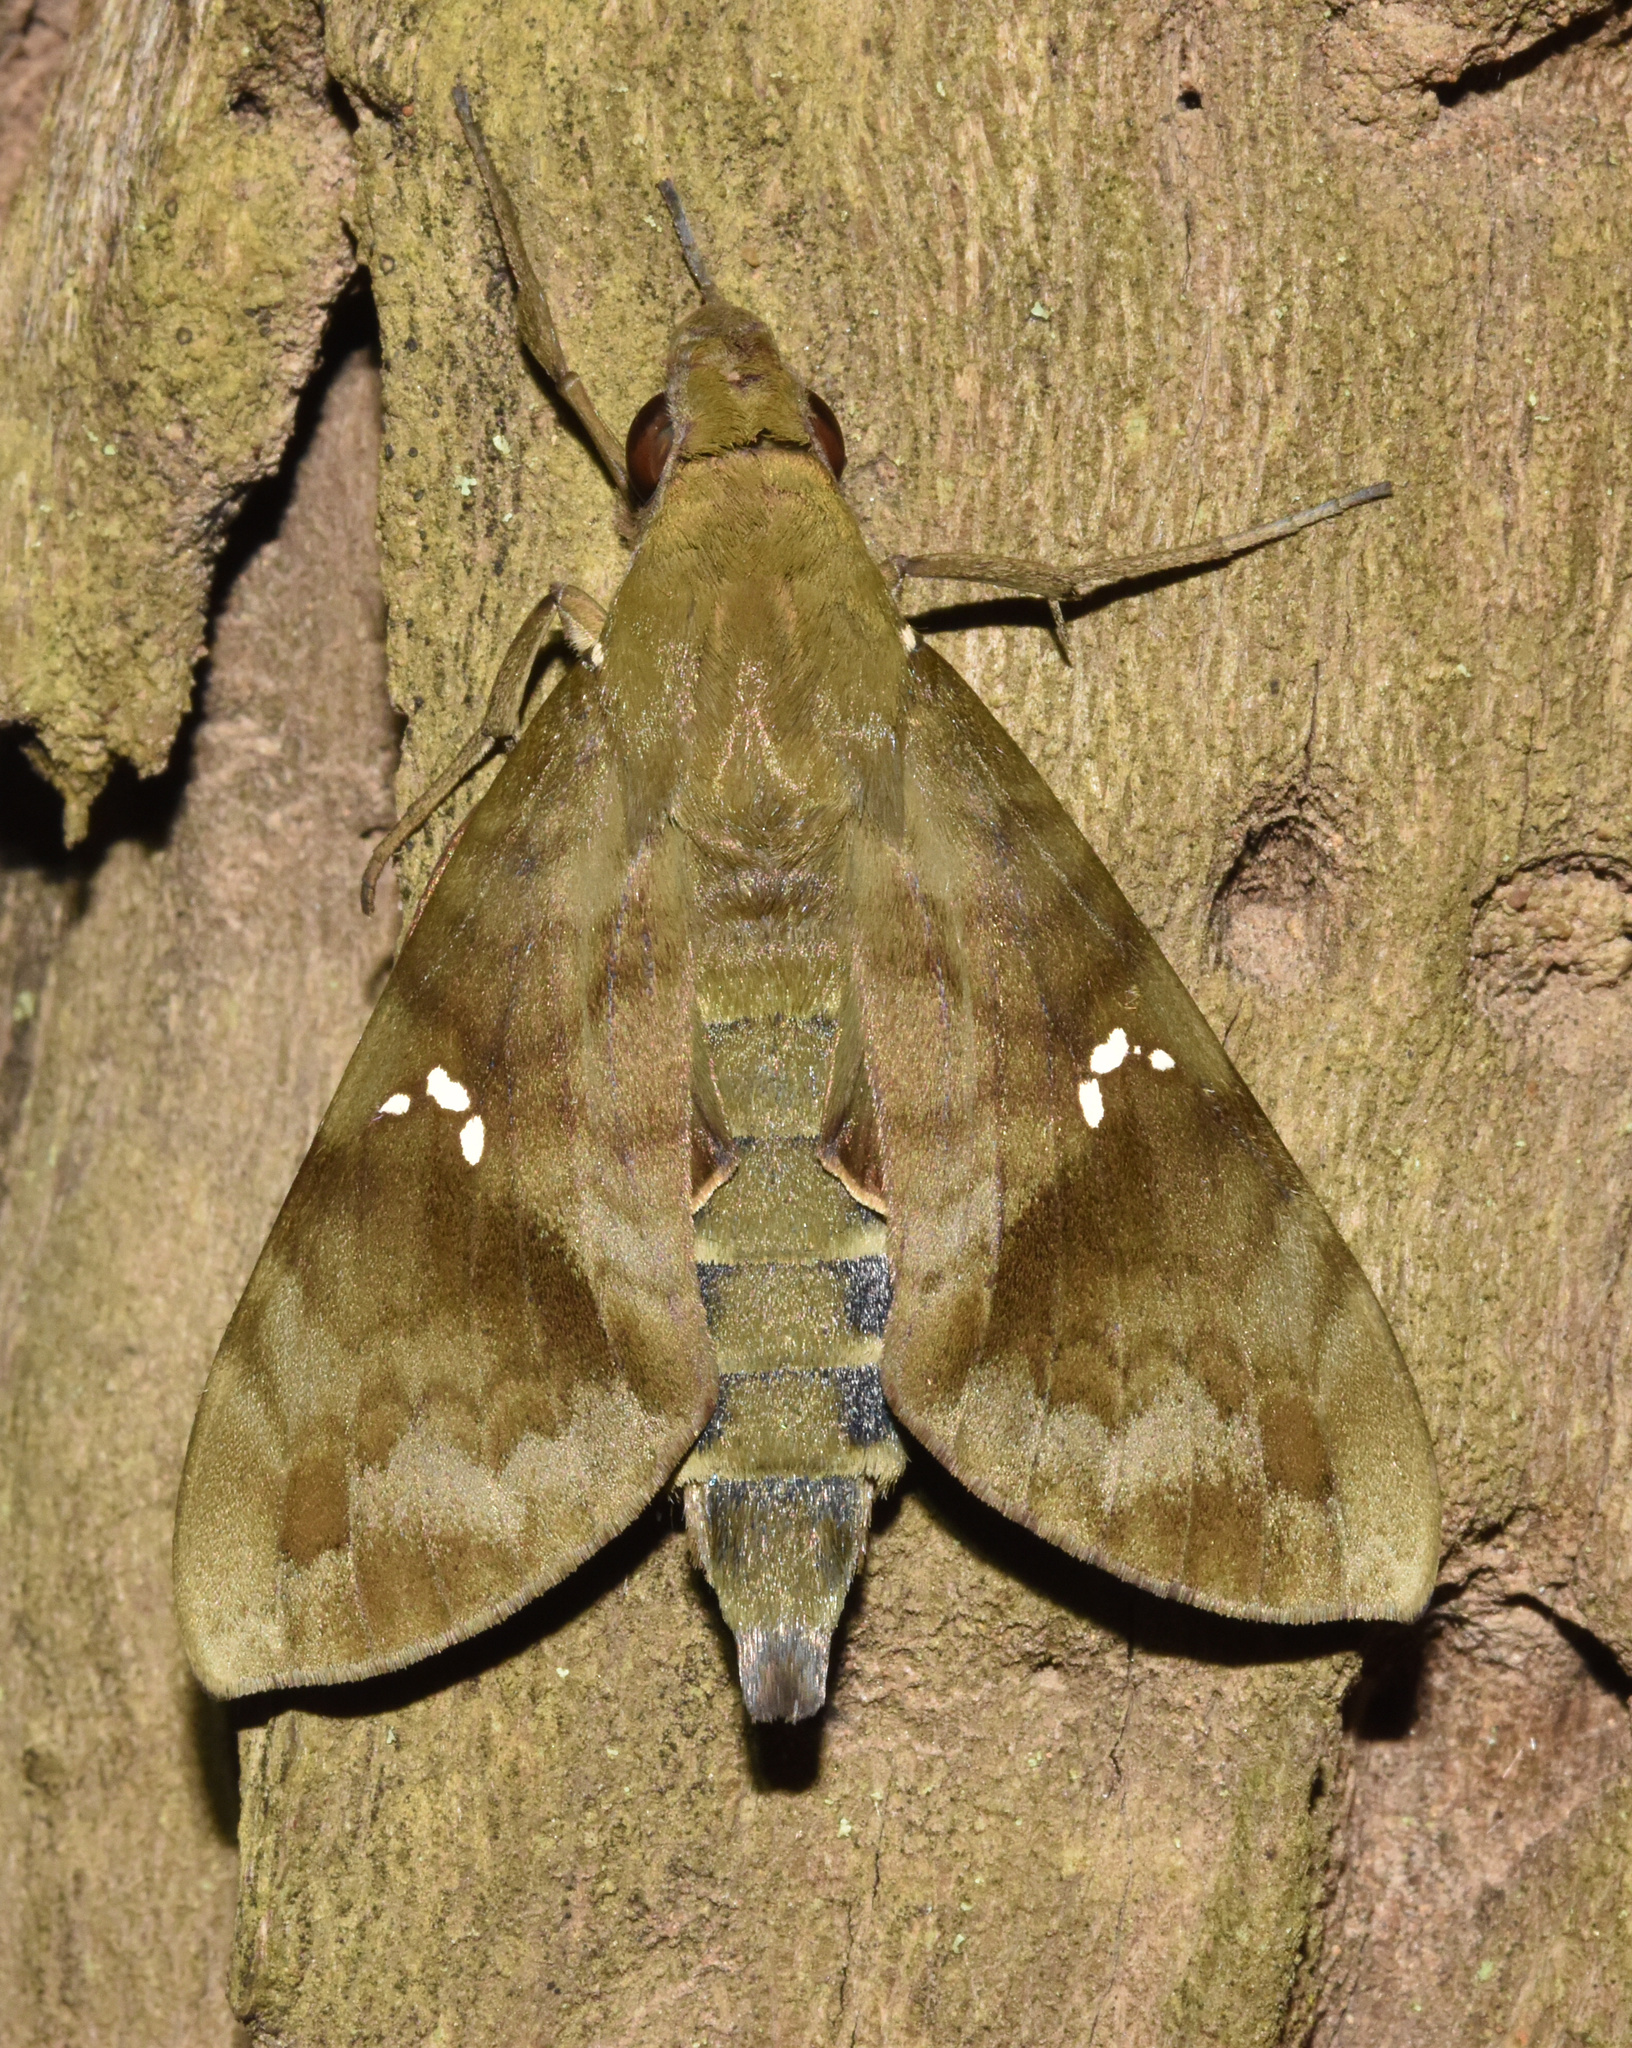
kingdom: Animalia
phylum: Arthropoda
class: Insecta
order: Lepidoptera
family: Sphingidae
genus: Nephele
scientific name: Nephele peneus
